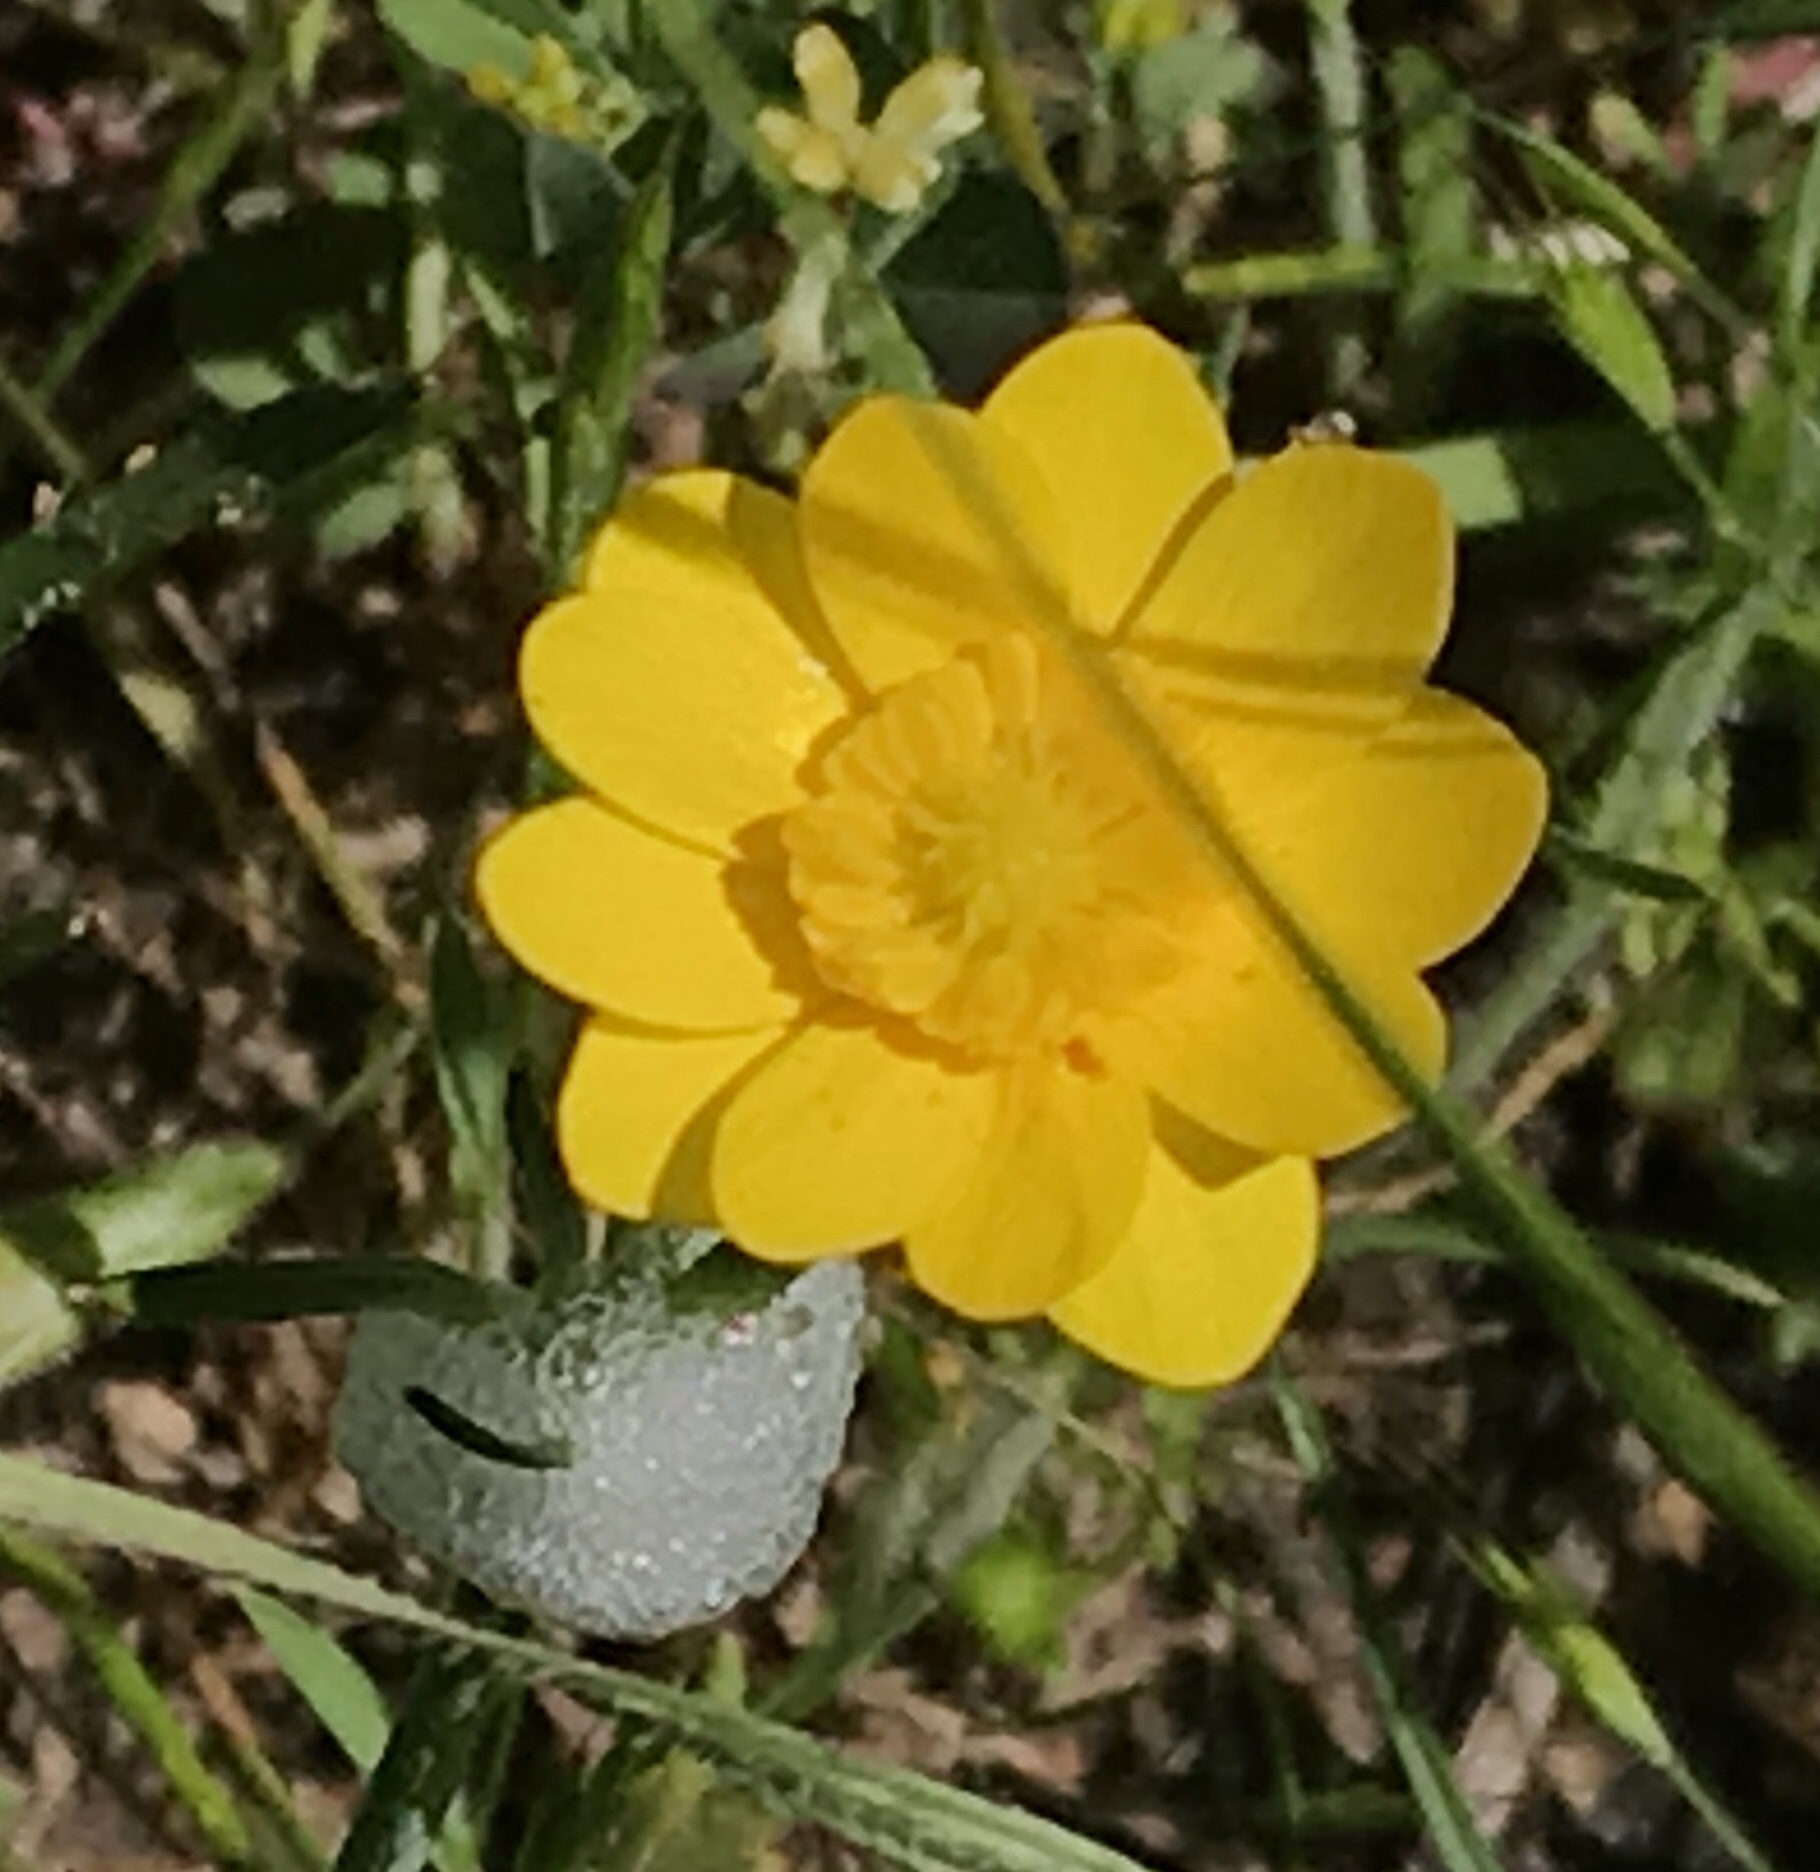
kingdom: Plantae
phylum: Tracheophyta
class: Magnoliopsida
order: Ranunculales
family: Ranunculaceae
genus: Ranunculus
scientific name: Ranunculus californicus
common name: California buttercup
